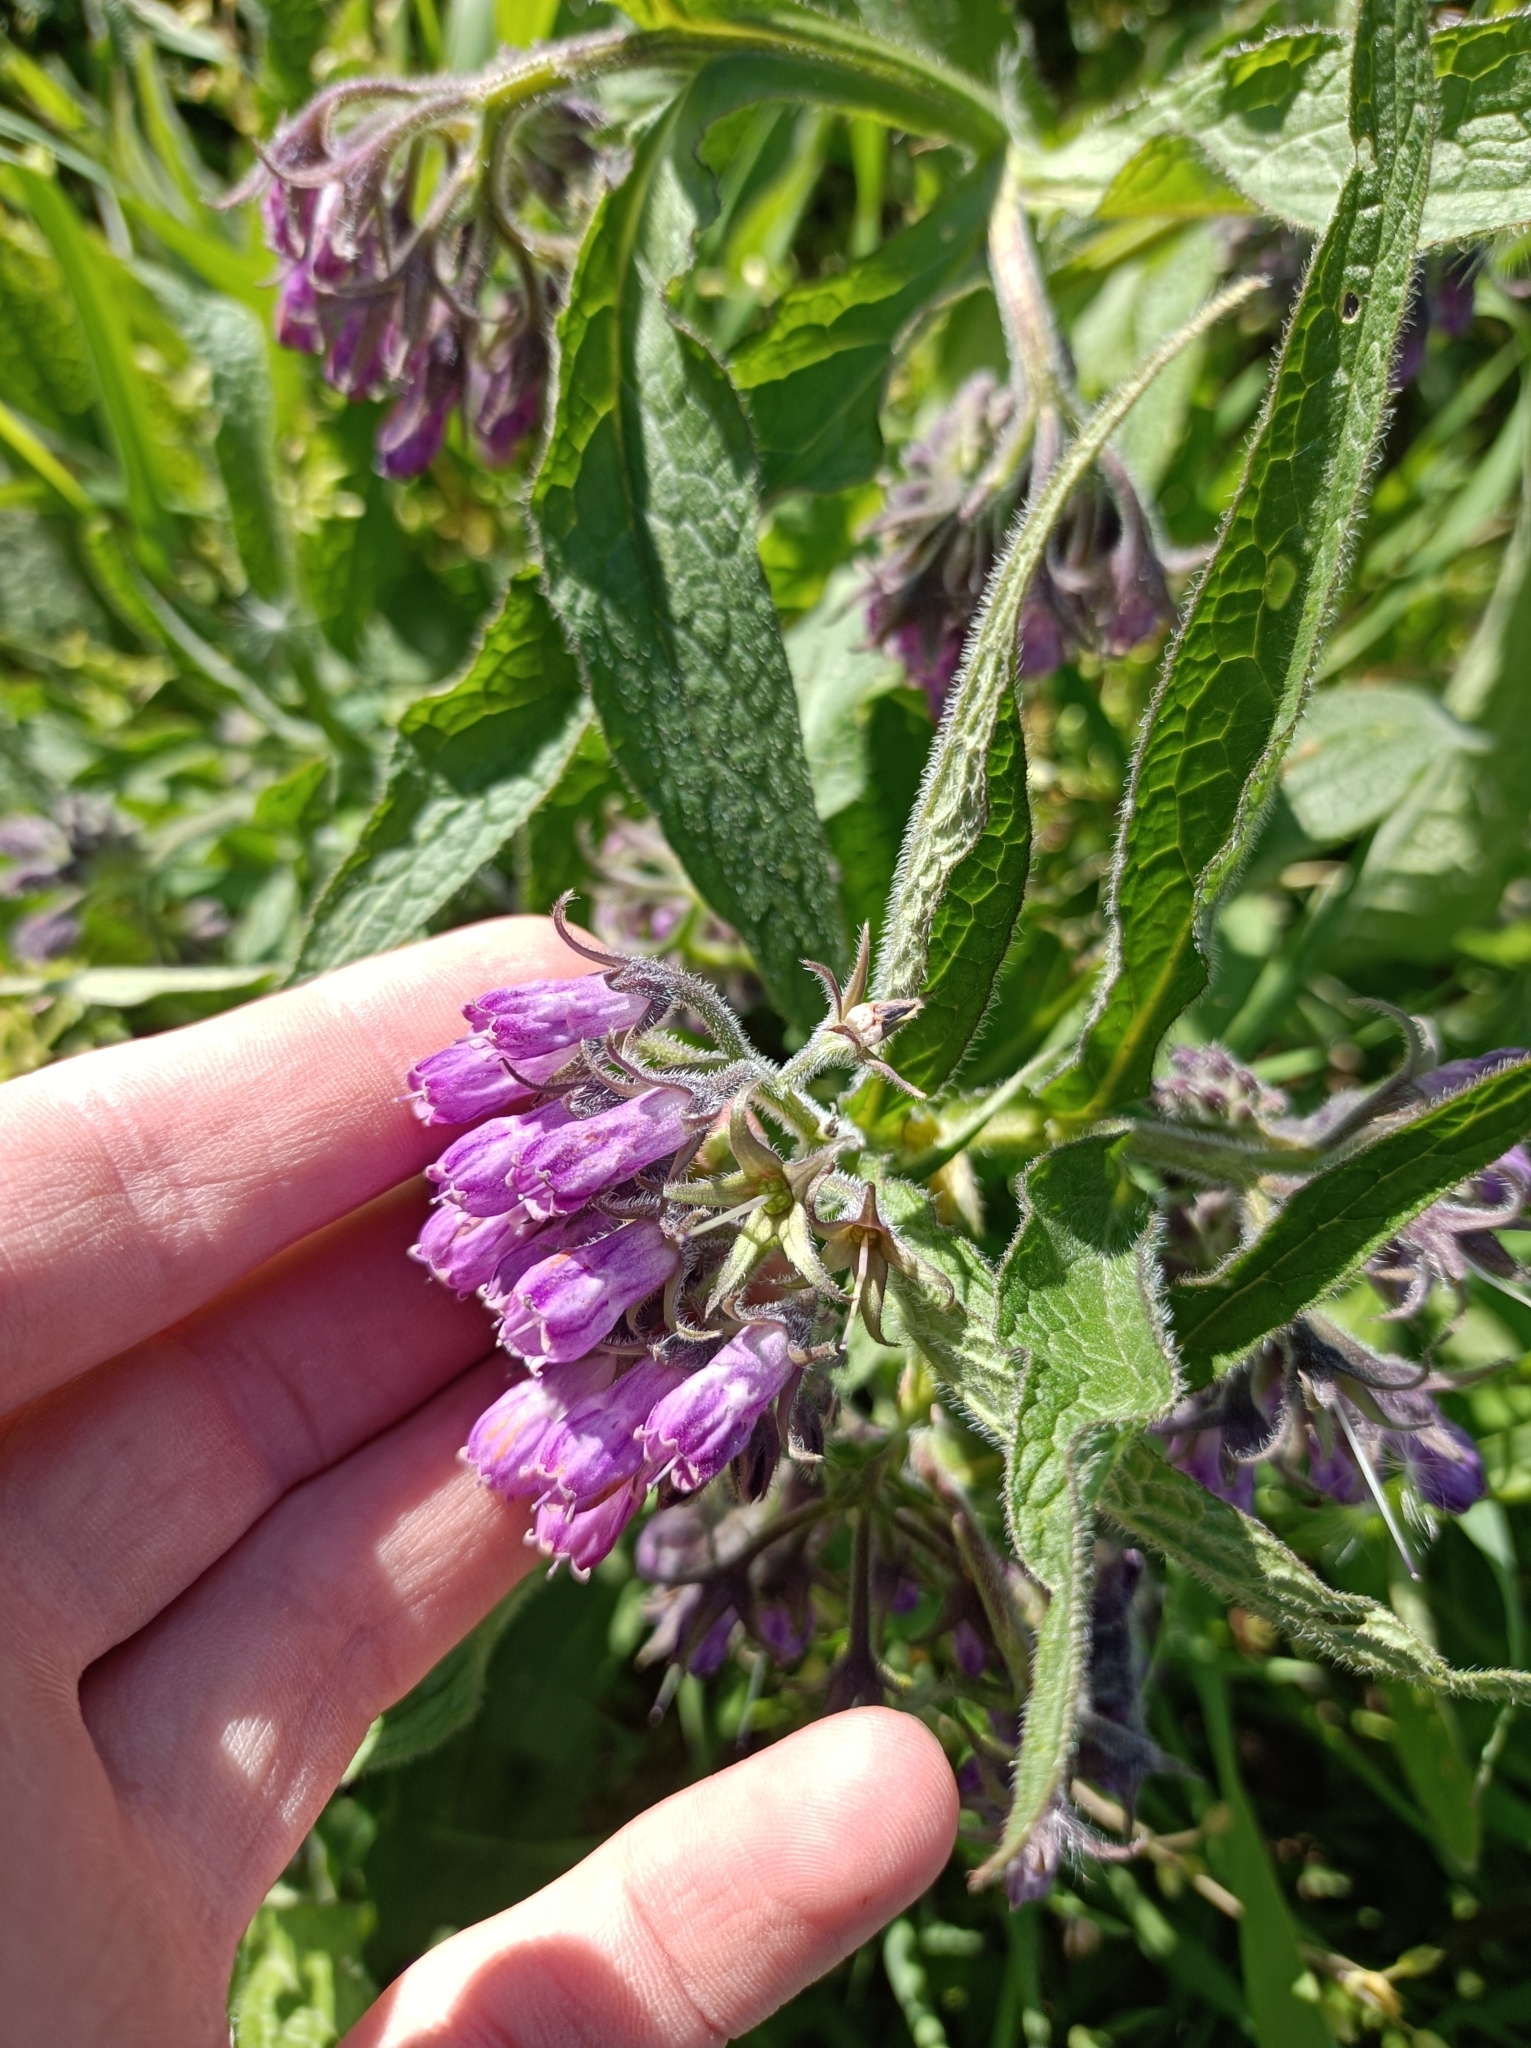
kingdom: Plantae
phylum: Tracheophyta
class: Magnoliopsida
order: Boraginales
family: Boraginaceae
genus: Symphytum
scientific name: Symphytum officinale
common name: Common comfrey
